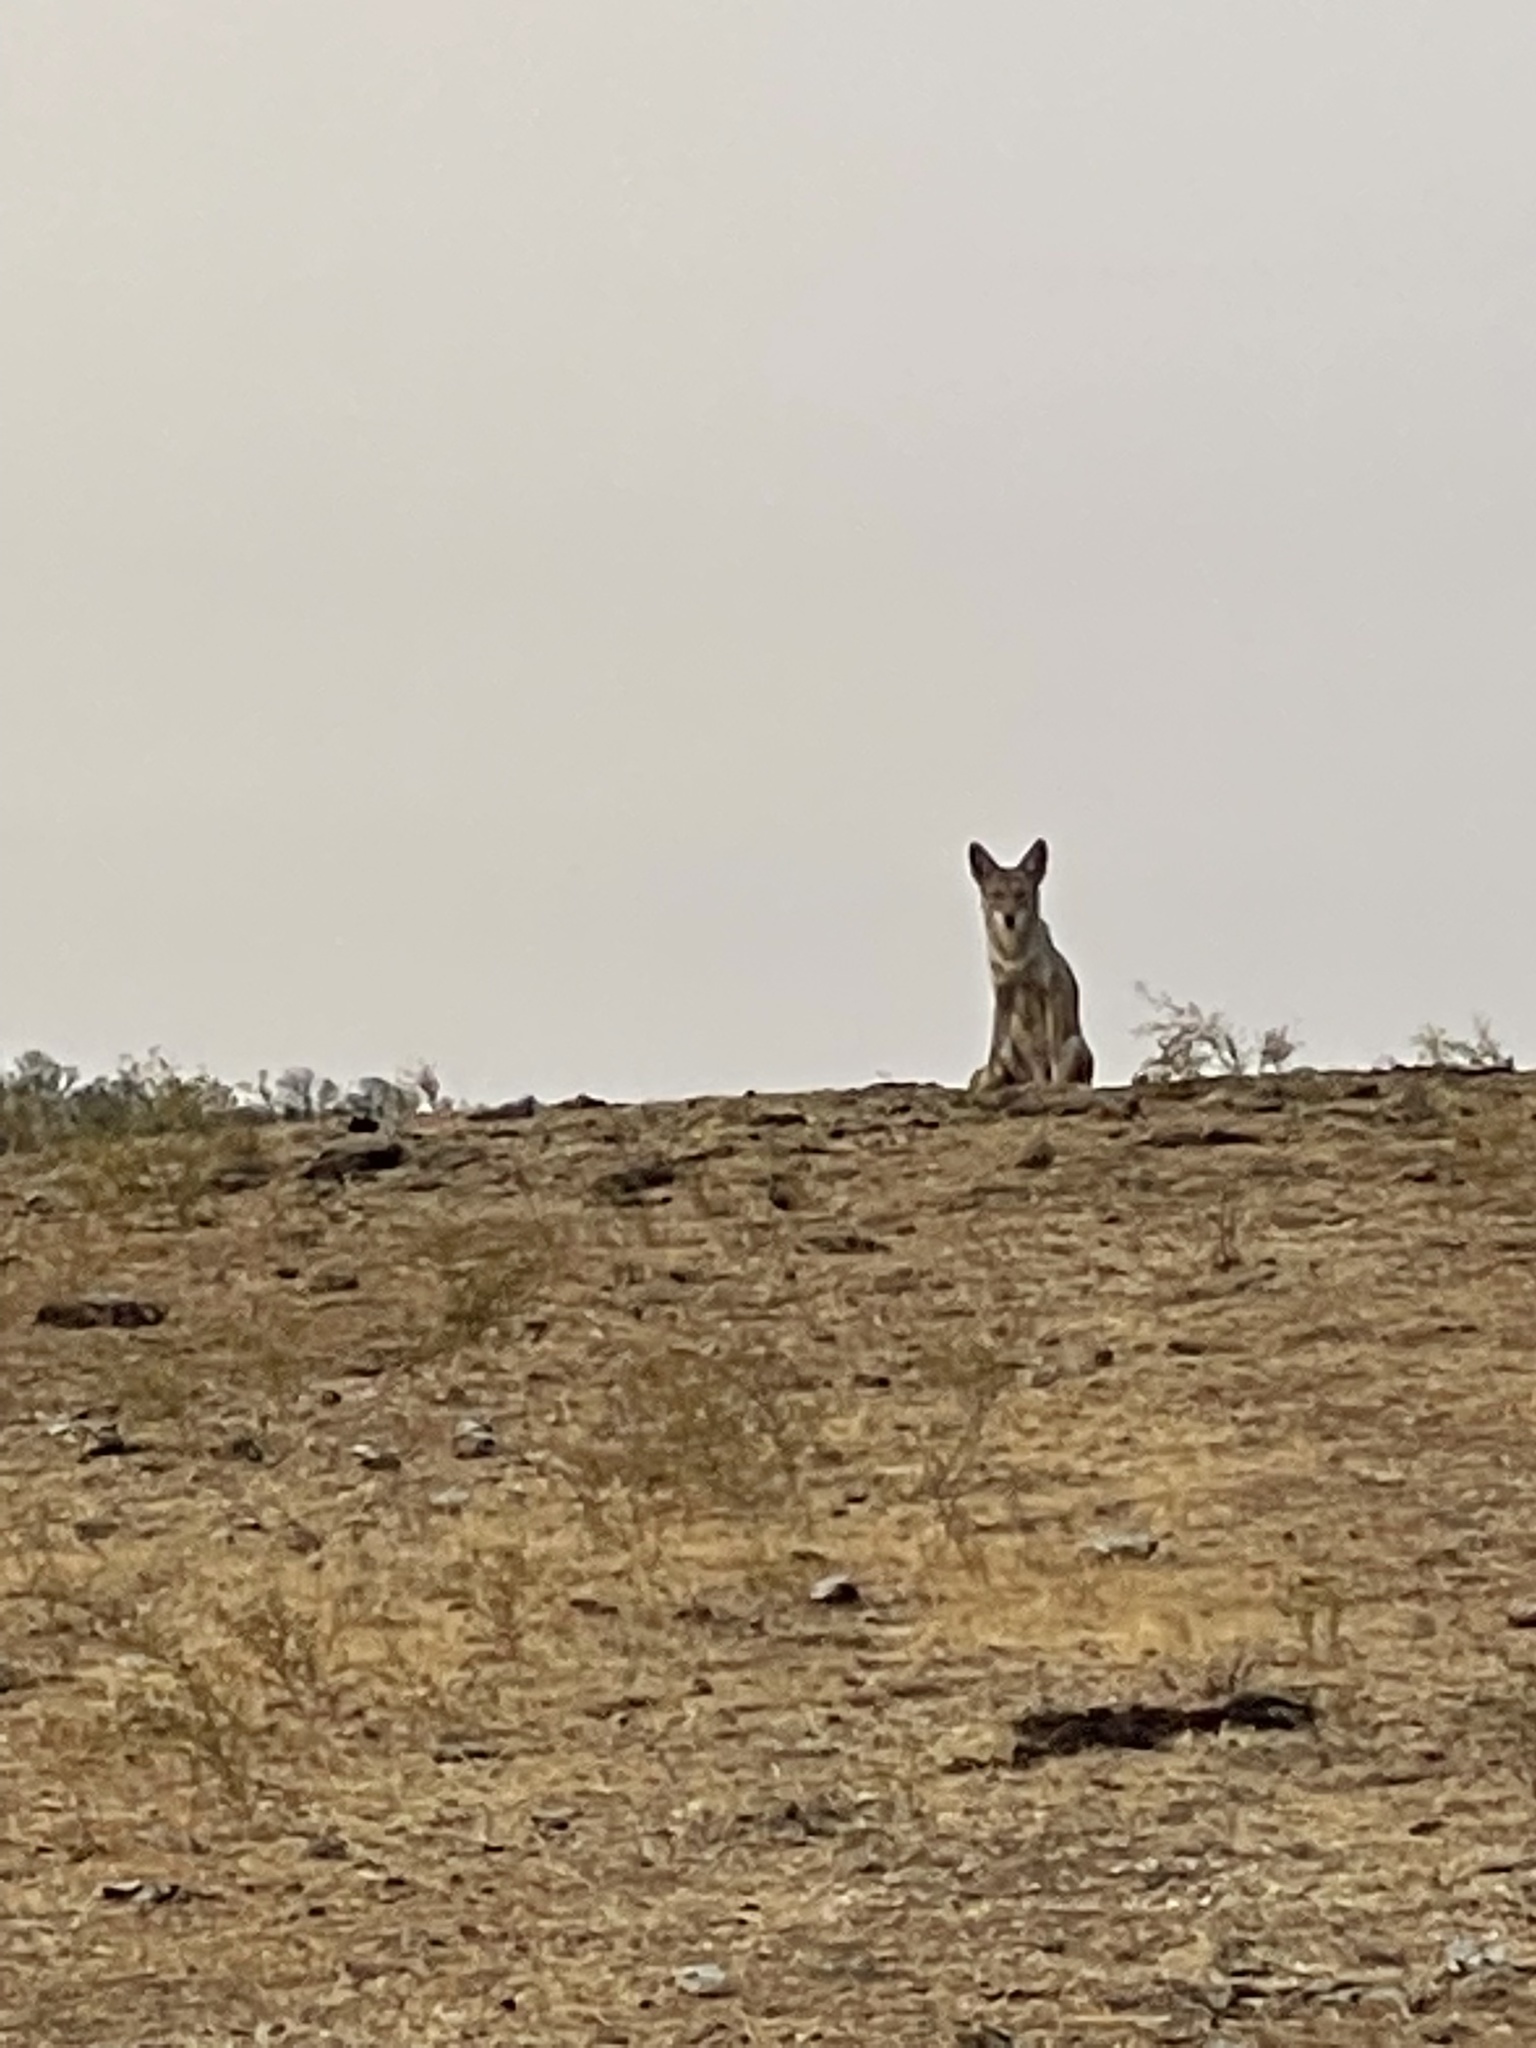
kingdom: Animalia
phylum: Chordata
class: Mammalia
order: Carnivora
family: Canidae
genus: Canis
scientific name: Canis latrans
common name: Coyote
